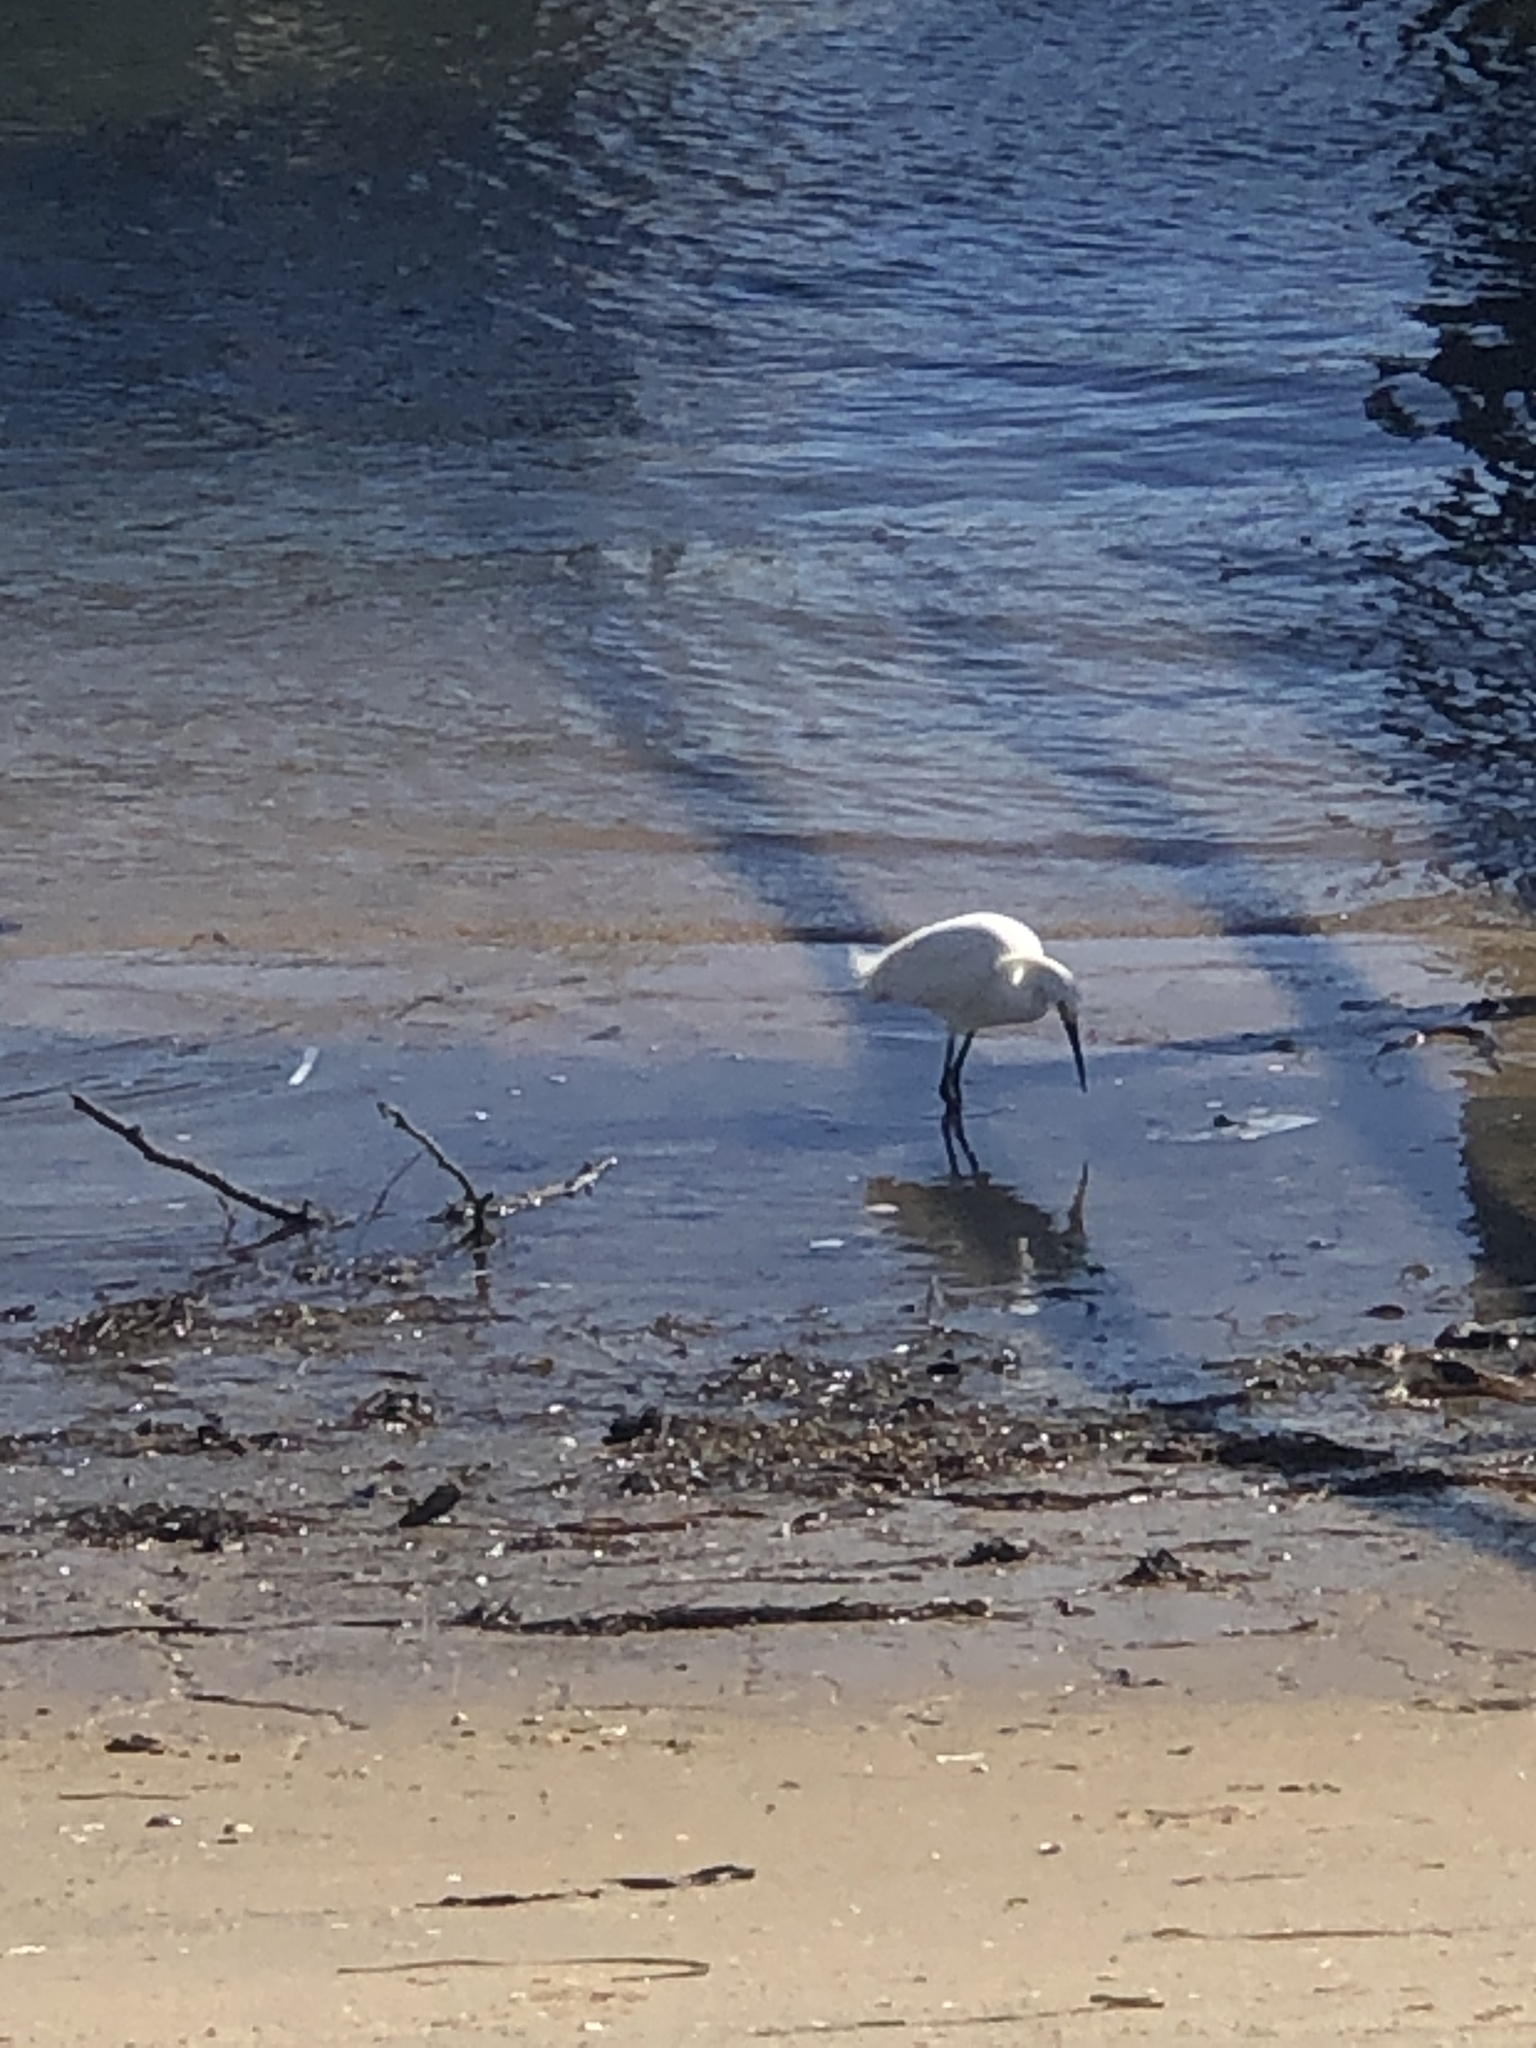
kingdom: Animalia
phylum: Chordata
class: Aves
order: Pelecaniformes
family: Ardeidae
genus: Egretta
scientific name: Egretta thula
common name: Snowy egret
